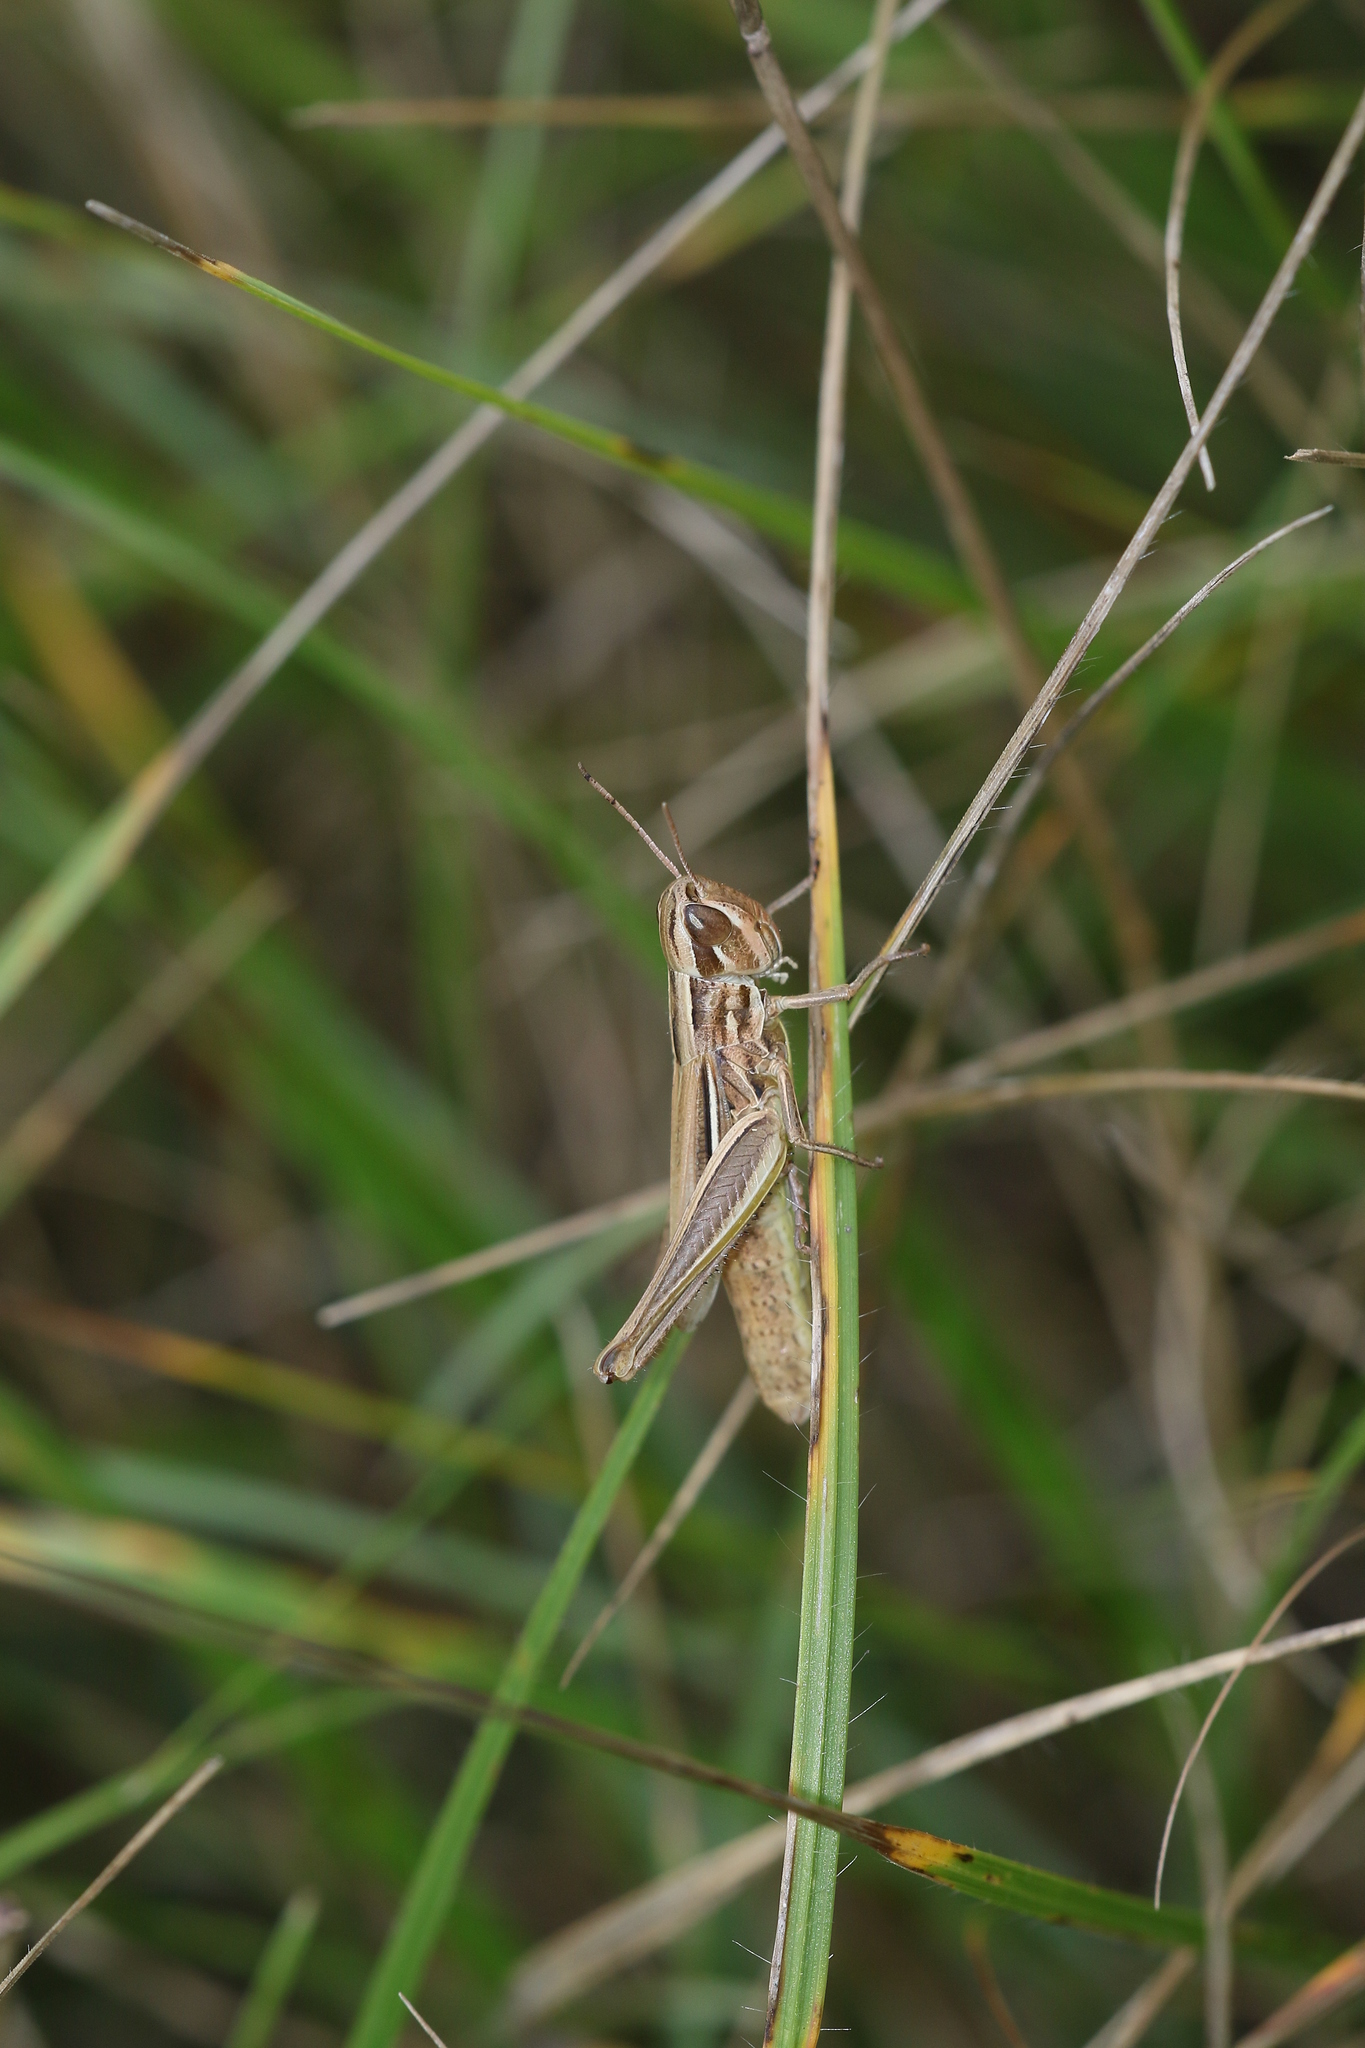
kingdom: Animalia
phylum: Arthropoda
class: Insecta
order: Orthoptera
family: Acrididae
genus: Euchorthippus
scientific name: Euchorthippus declivus
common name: Common straw grasshopper
